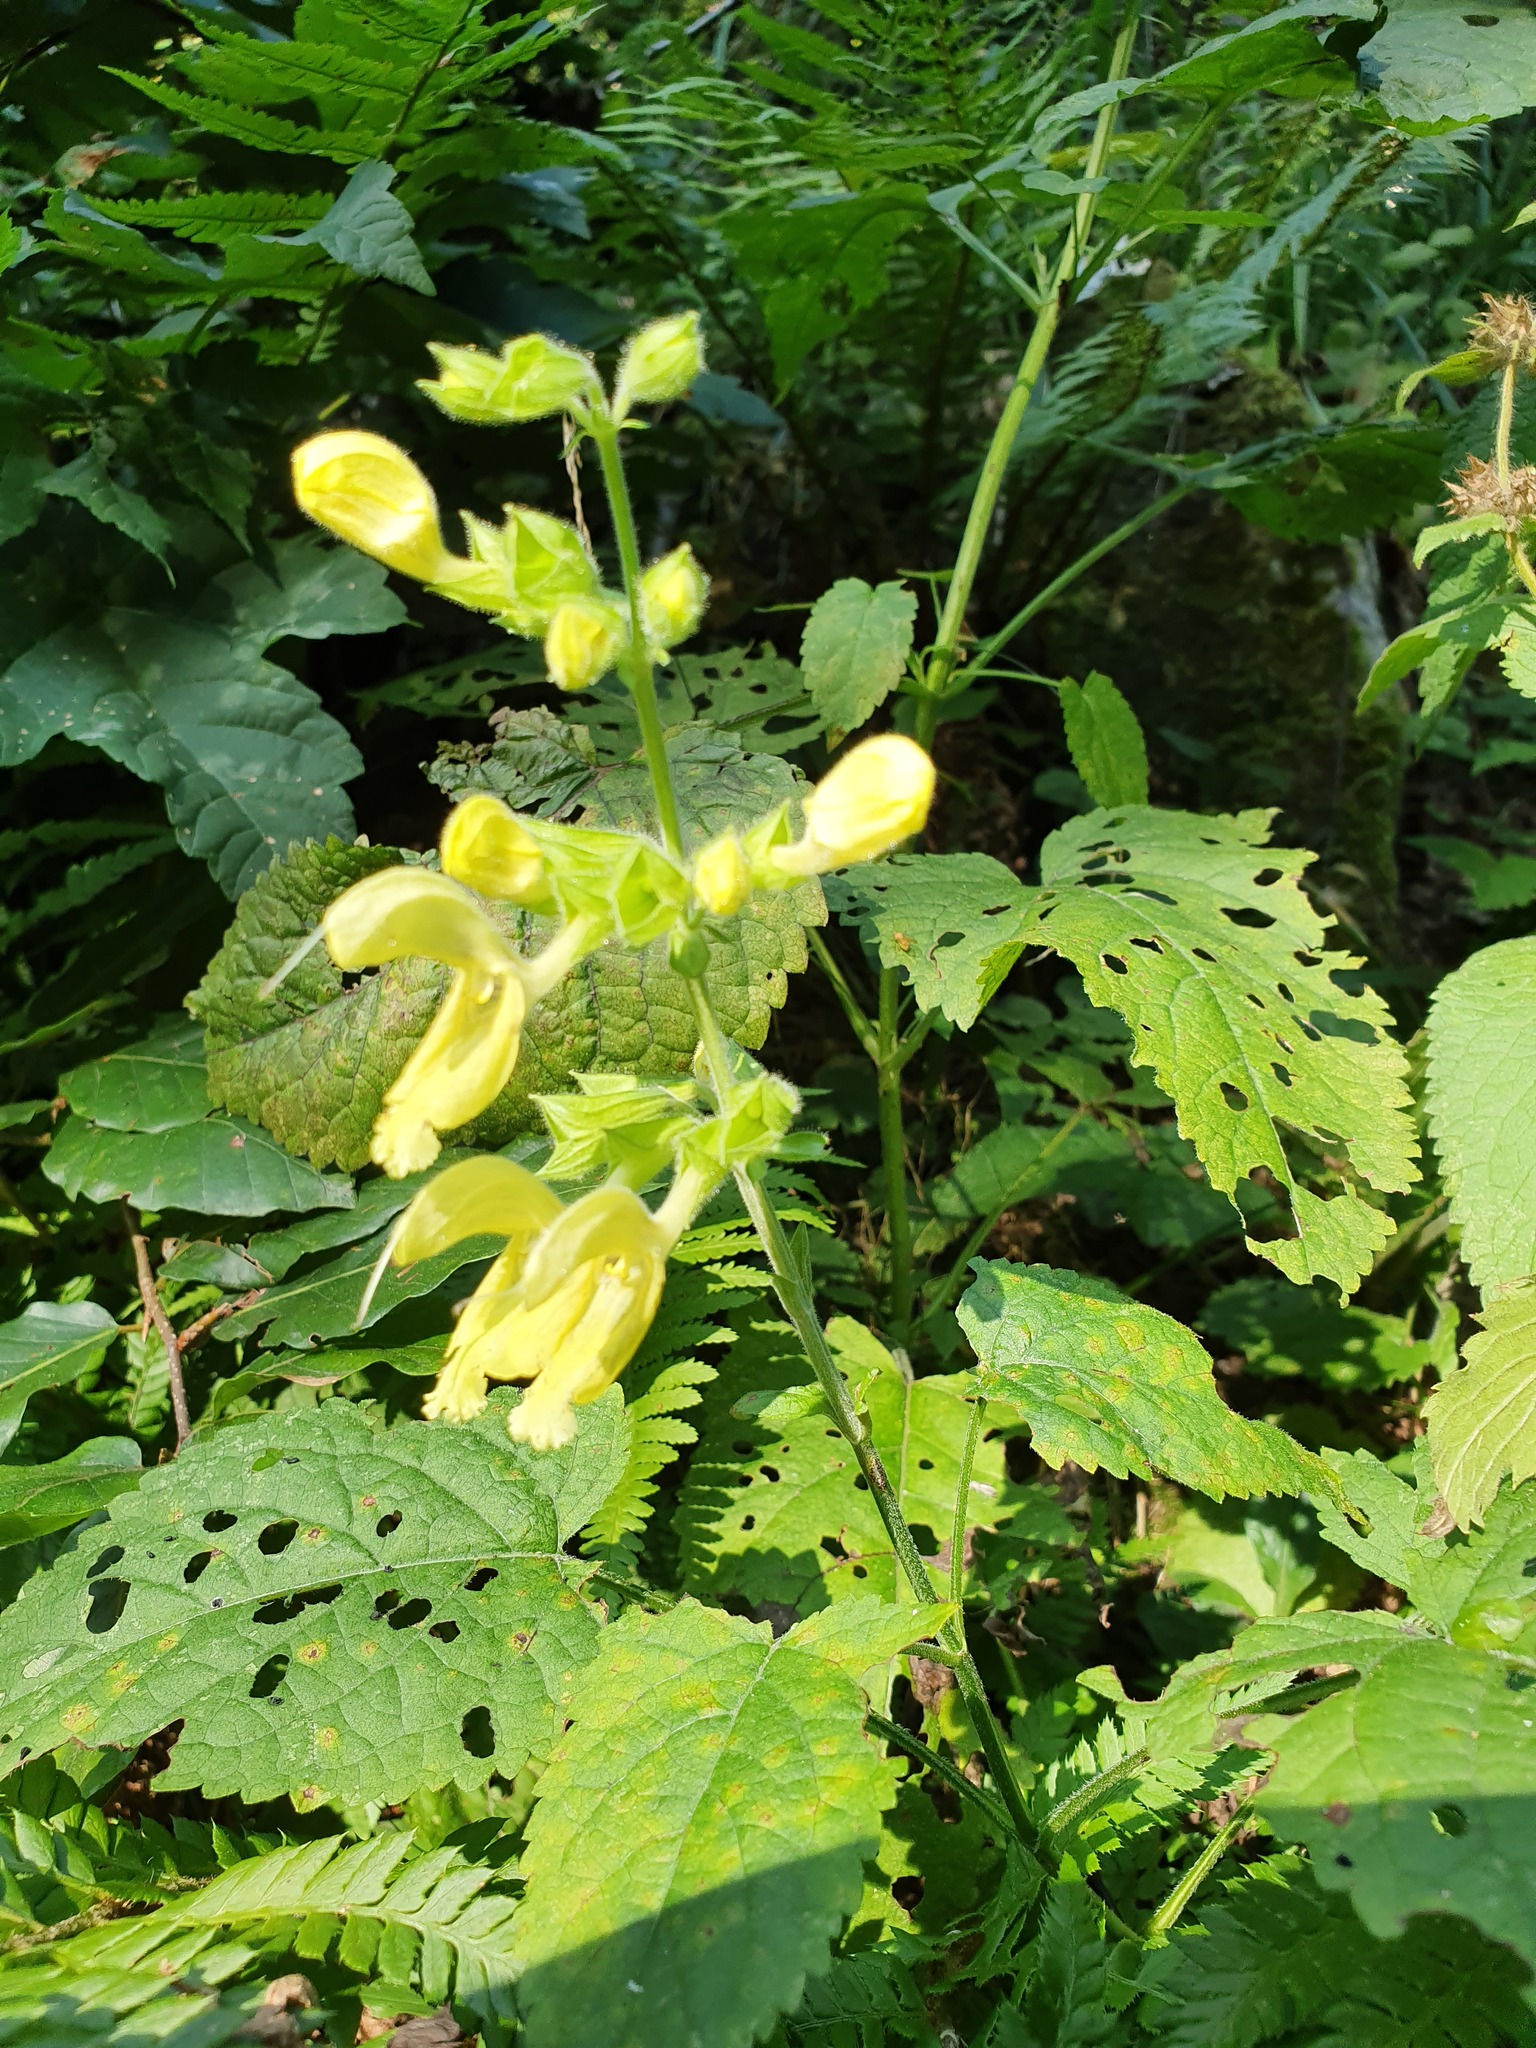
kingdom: Plantae
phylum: Tracheophyta
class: Magnoliopsida
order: Lamiales
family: Lamiaceae
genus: Salvia
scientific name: Salvia glutinosa
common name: Sticky clary
